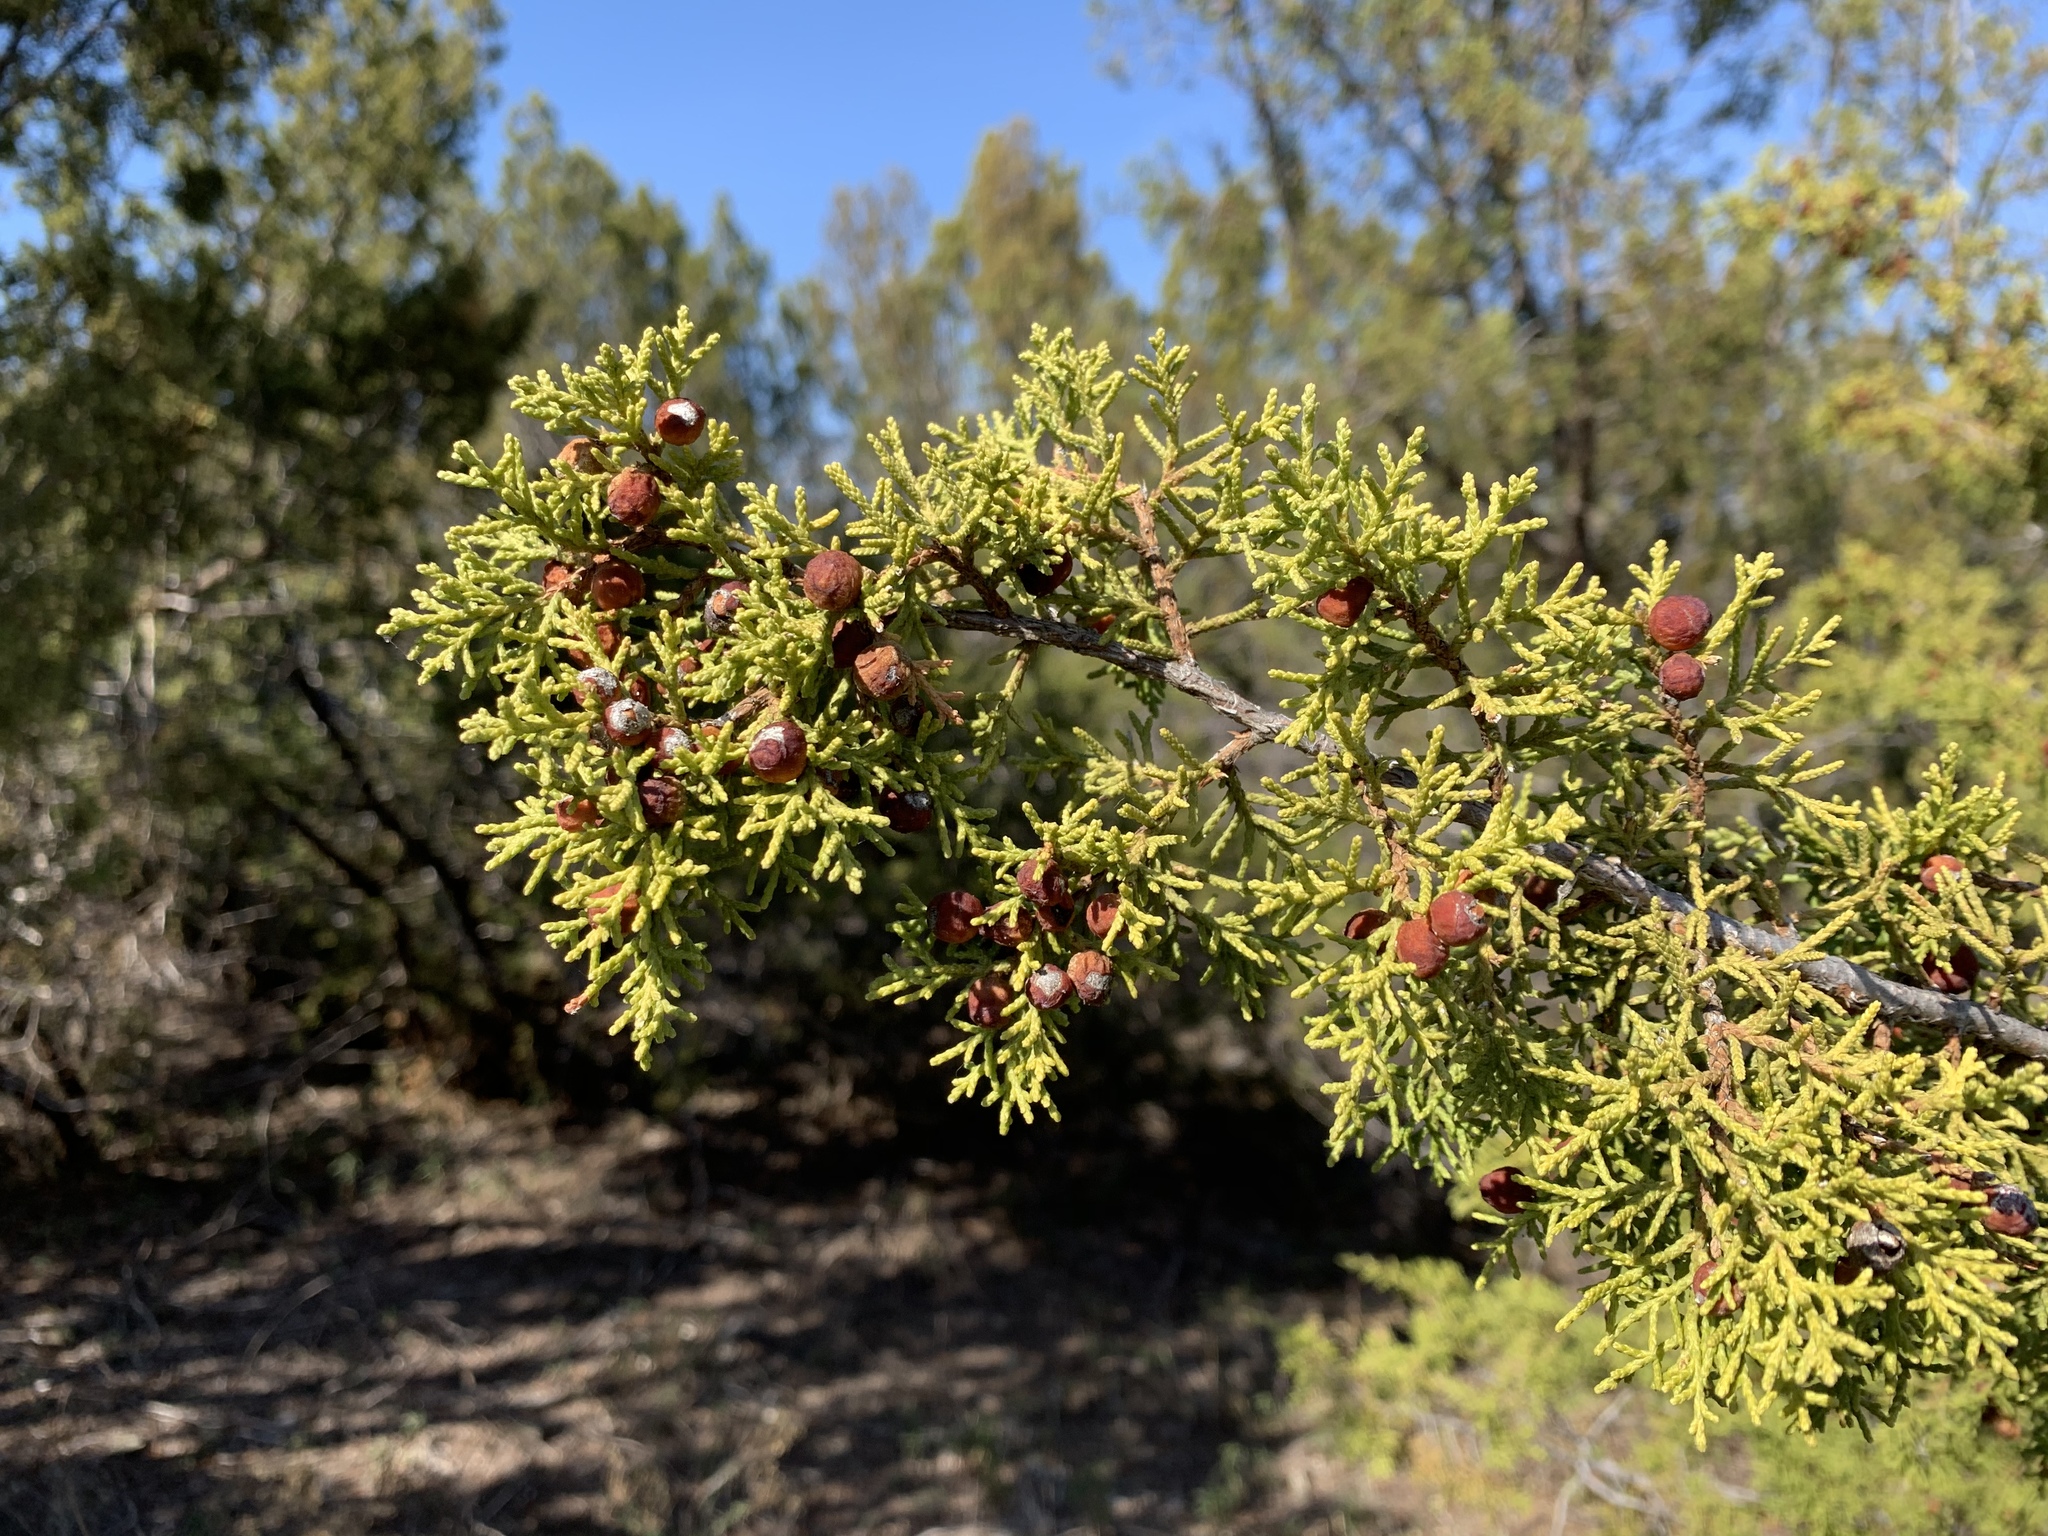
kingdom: Plantae
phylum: Tracheophyta
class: Pinopsida
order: Pinales
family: Cupressaceae
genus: Juniperus
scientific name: Juniperus pinchotii
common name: Pinchot juniper
